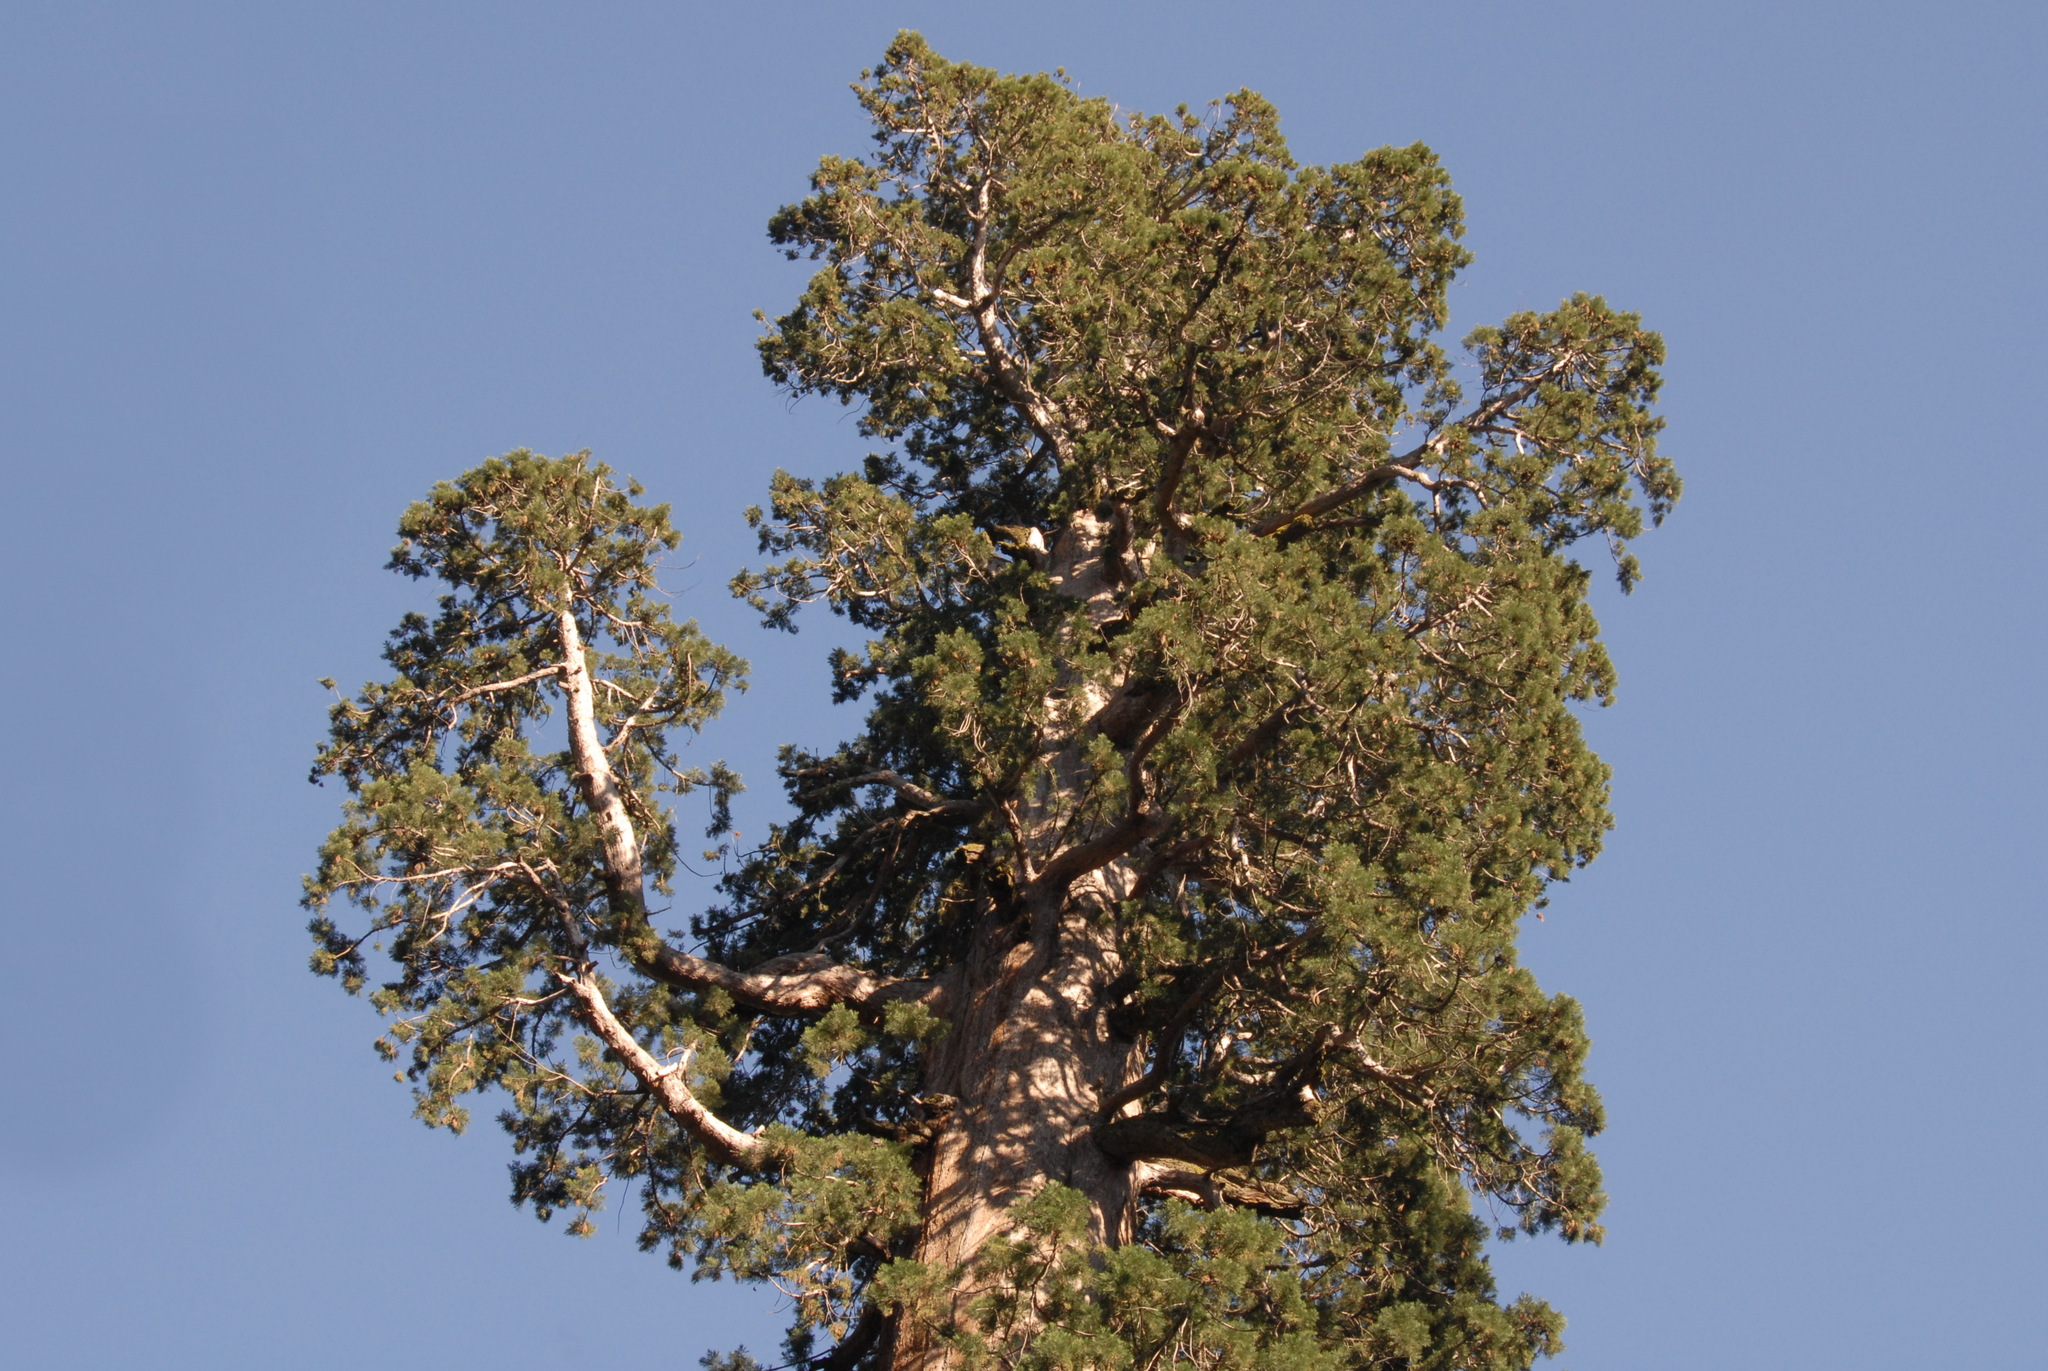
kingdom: Plantae
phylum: Tracheophyta
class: Pinopsida
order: Pinales
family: Cupressaceae
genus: Sequoiadendron
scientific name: Sequoiadendron giganteum
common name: Wellingtonia
